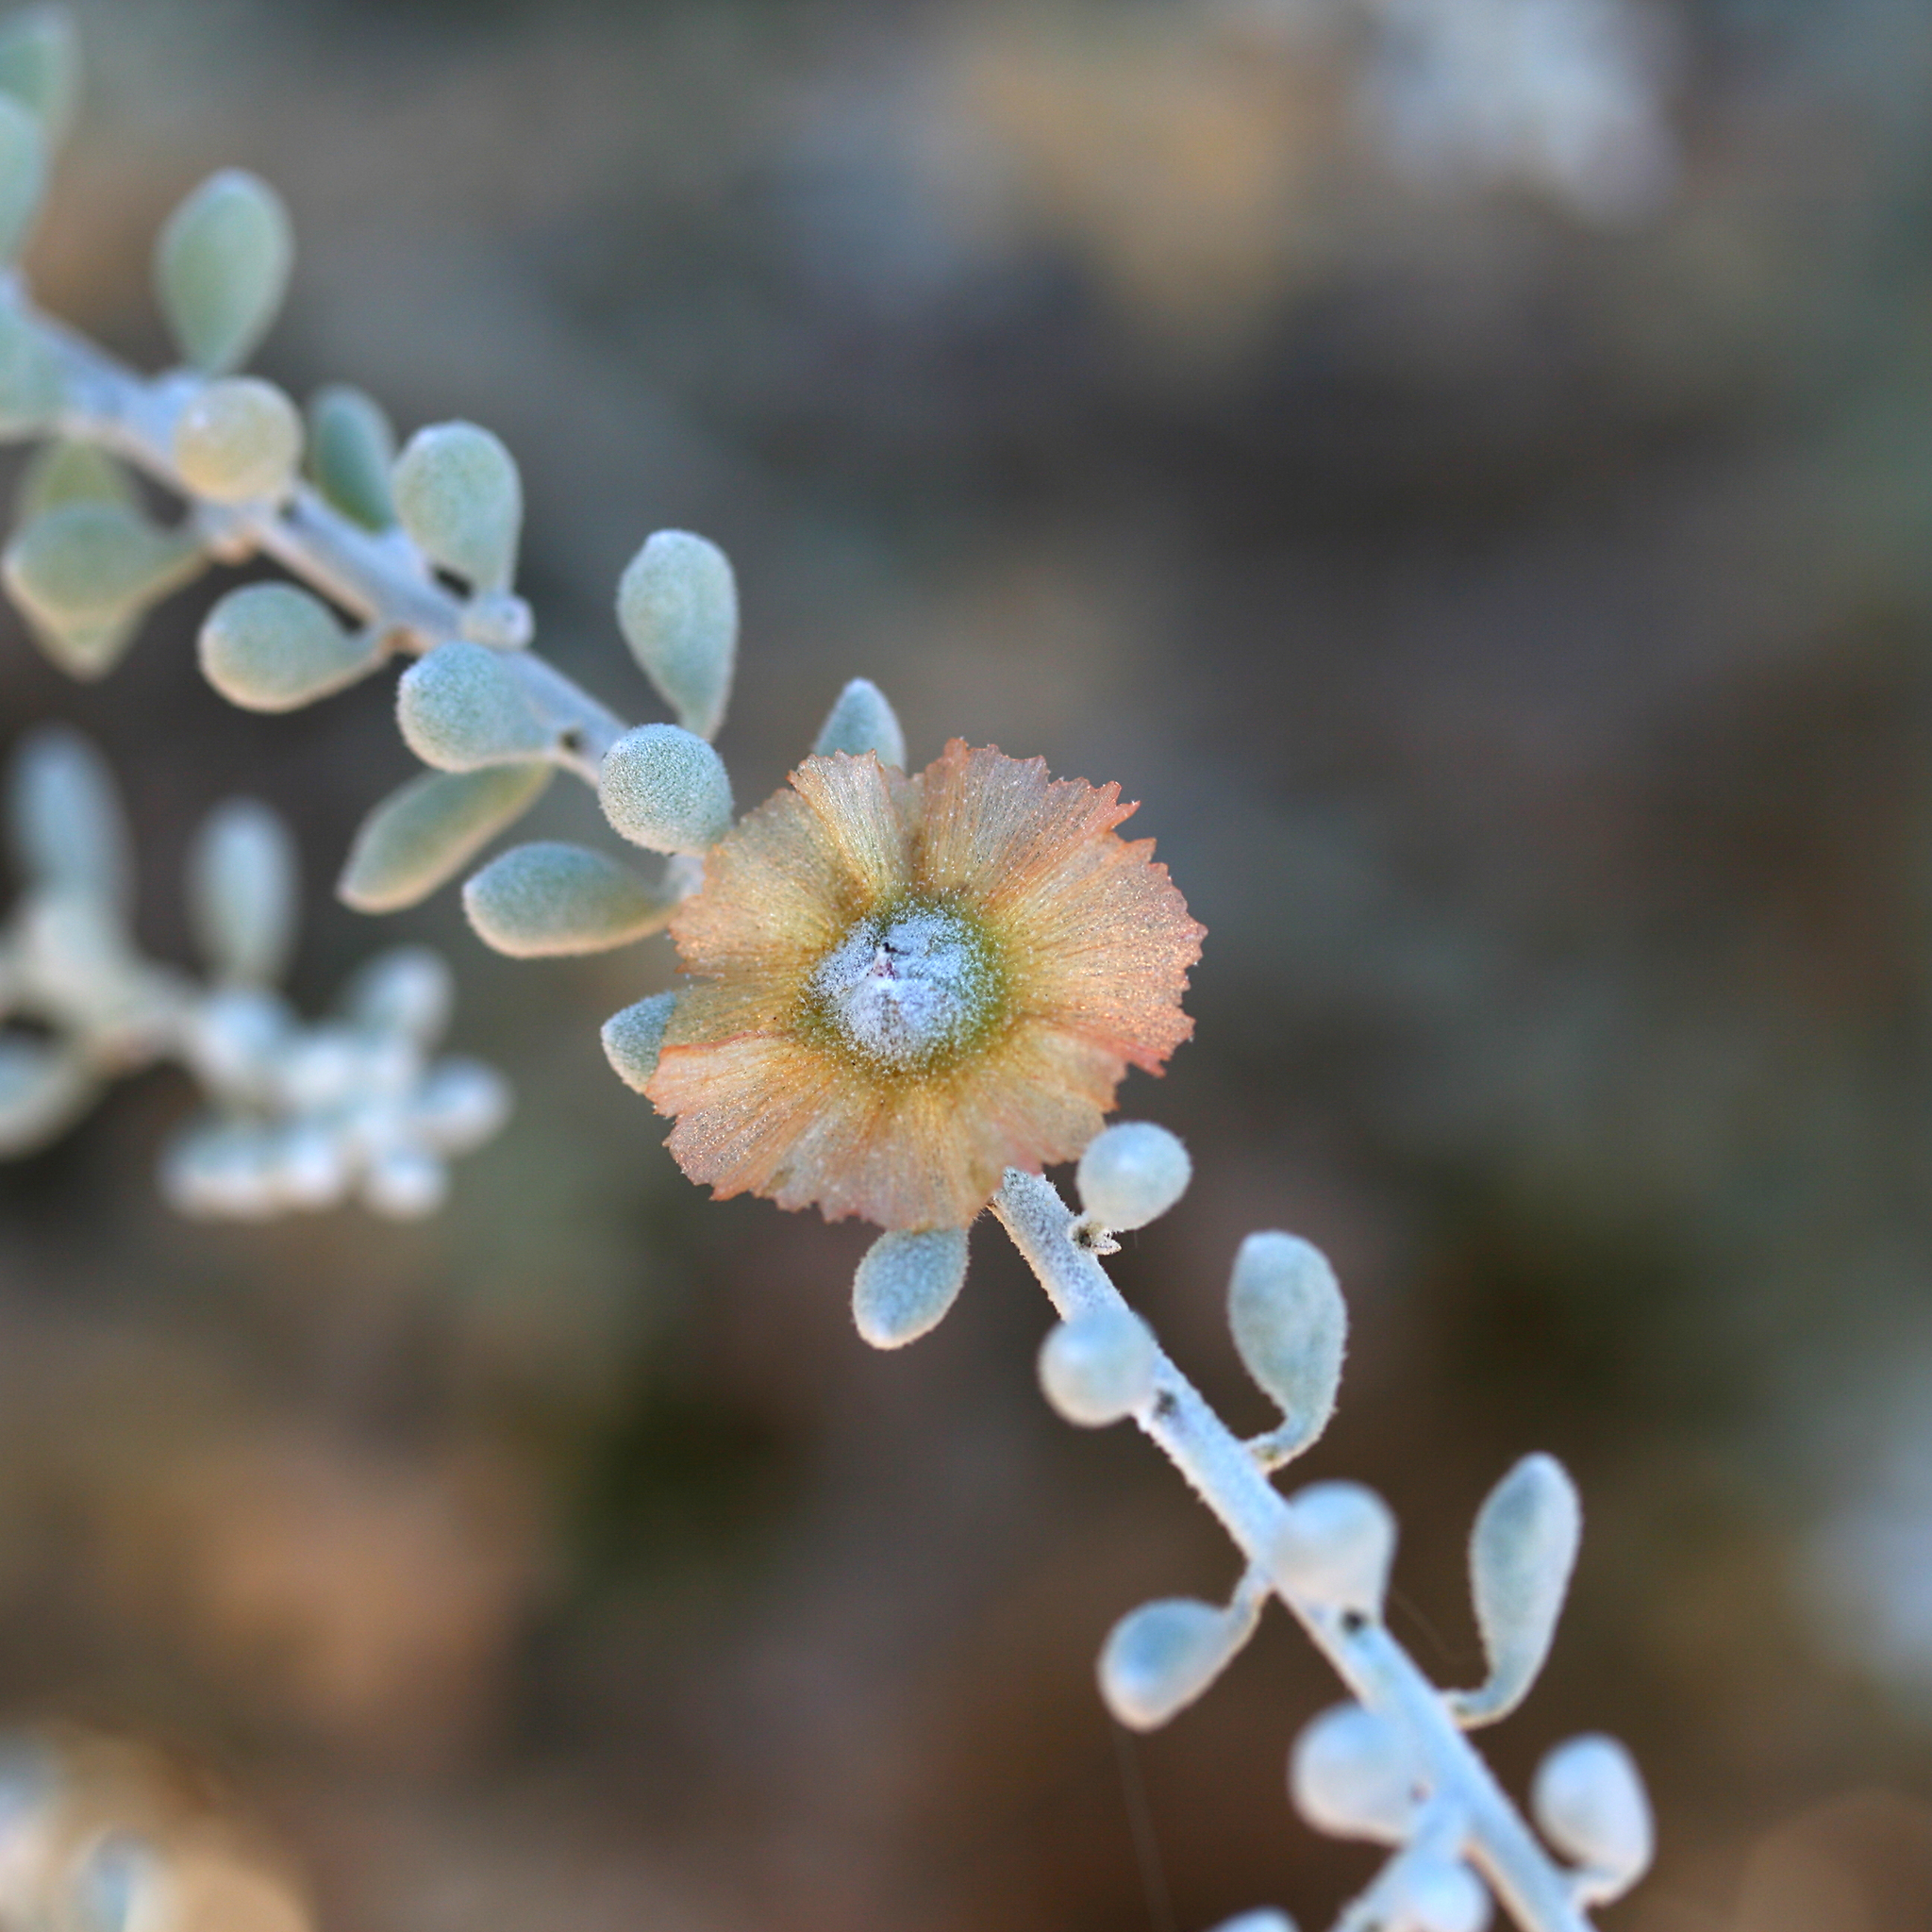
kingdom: Plantae
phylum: Tracheophyta
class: Magnoliopsida
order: Caryophyllales
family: Amaranthaceae
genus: Maireana
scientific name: Maireana astrotricha
